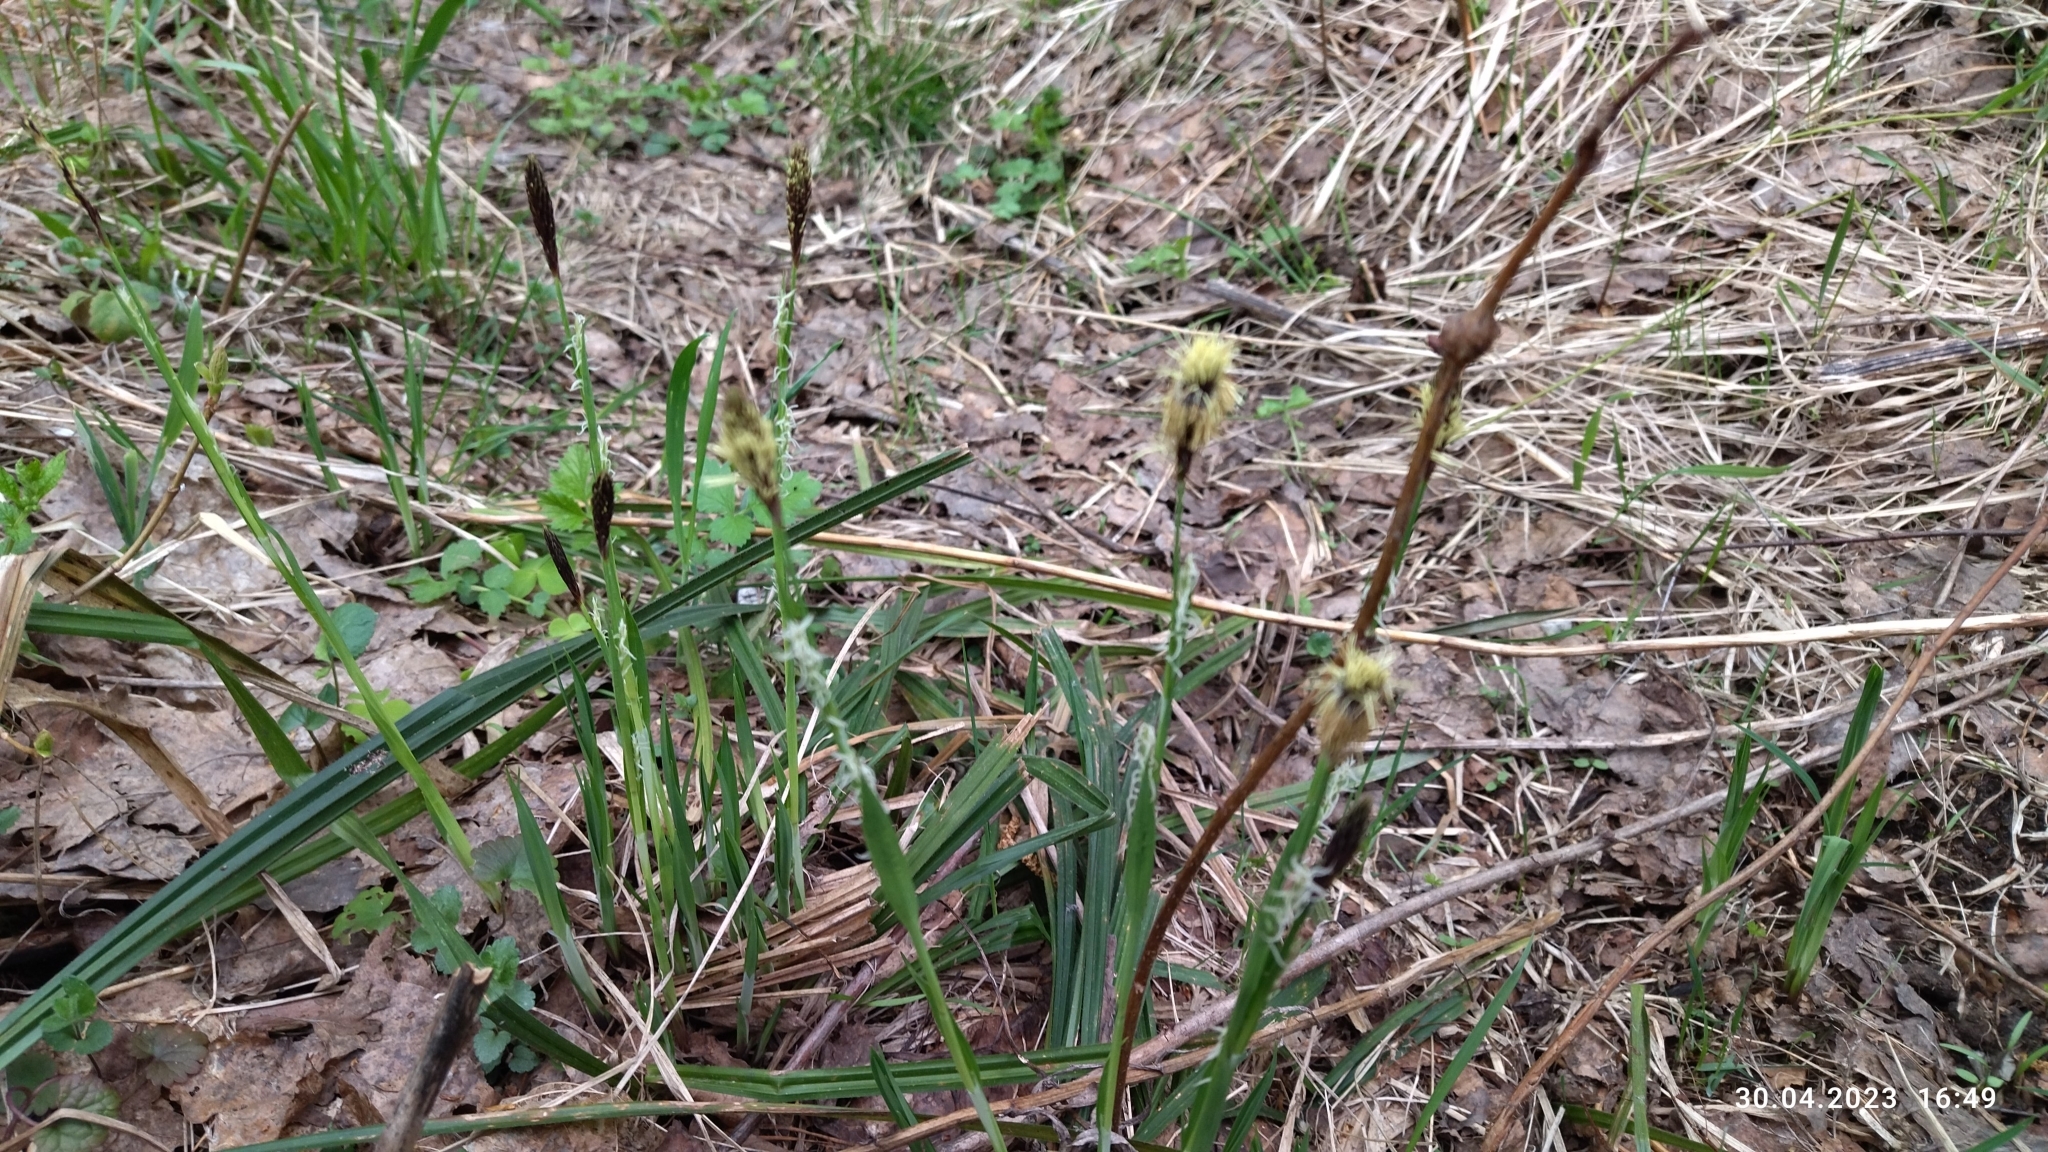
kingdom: Plantae
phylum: Tracheophyta
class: Liliopsida
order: Poales
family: Cyperaceae
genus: Carex
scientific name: Carex pilosa
